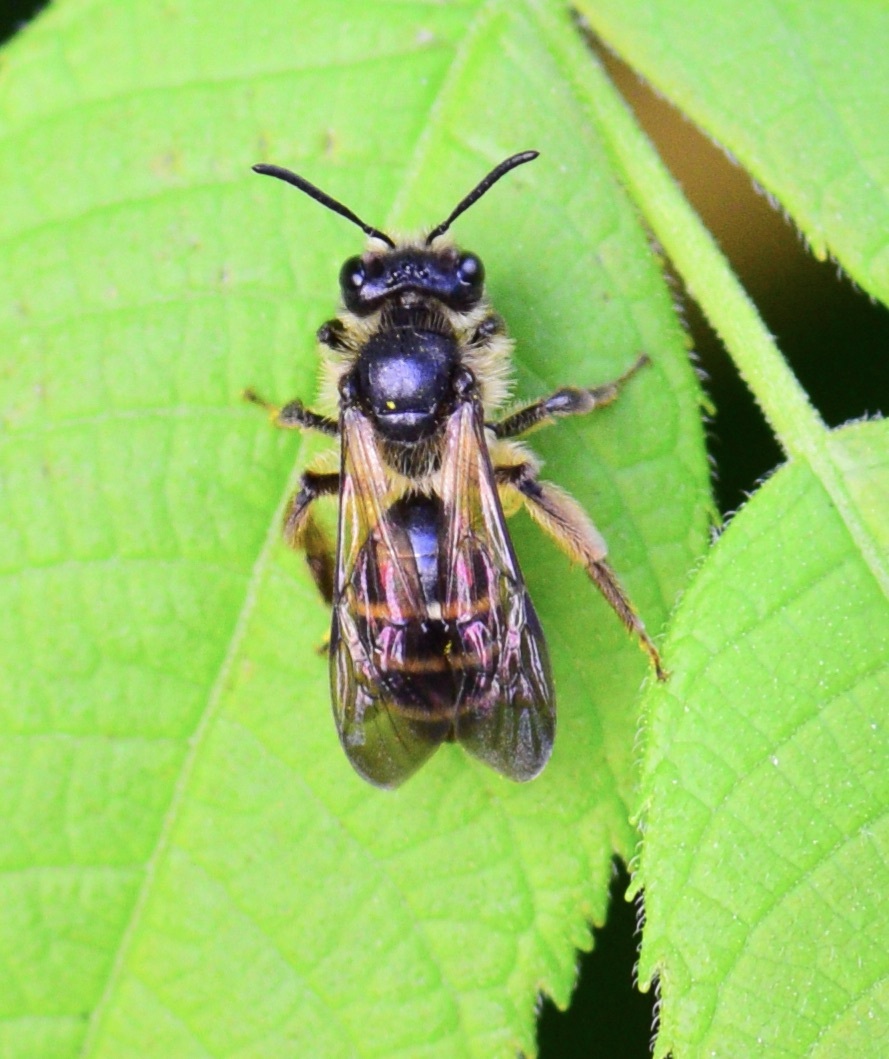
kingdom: Animalia
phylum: Arthropoda
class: Insecta
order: Hymenoptera
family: Andrenidae
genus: Andrena
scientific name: Andrena robervalensis
